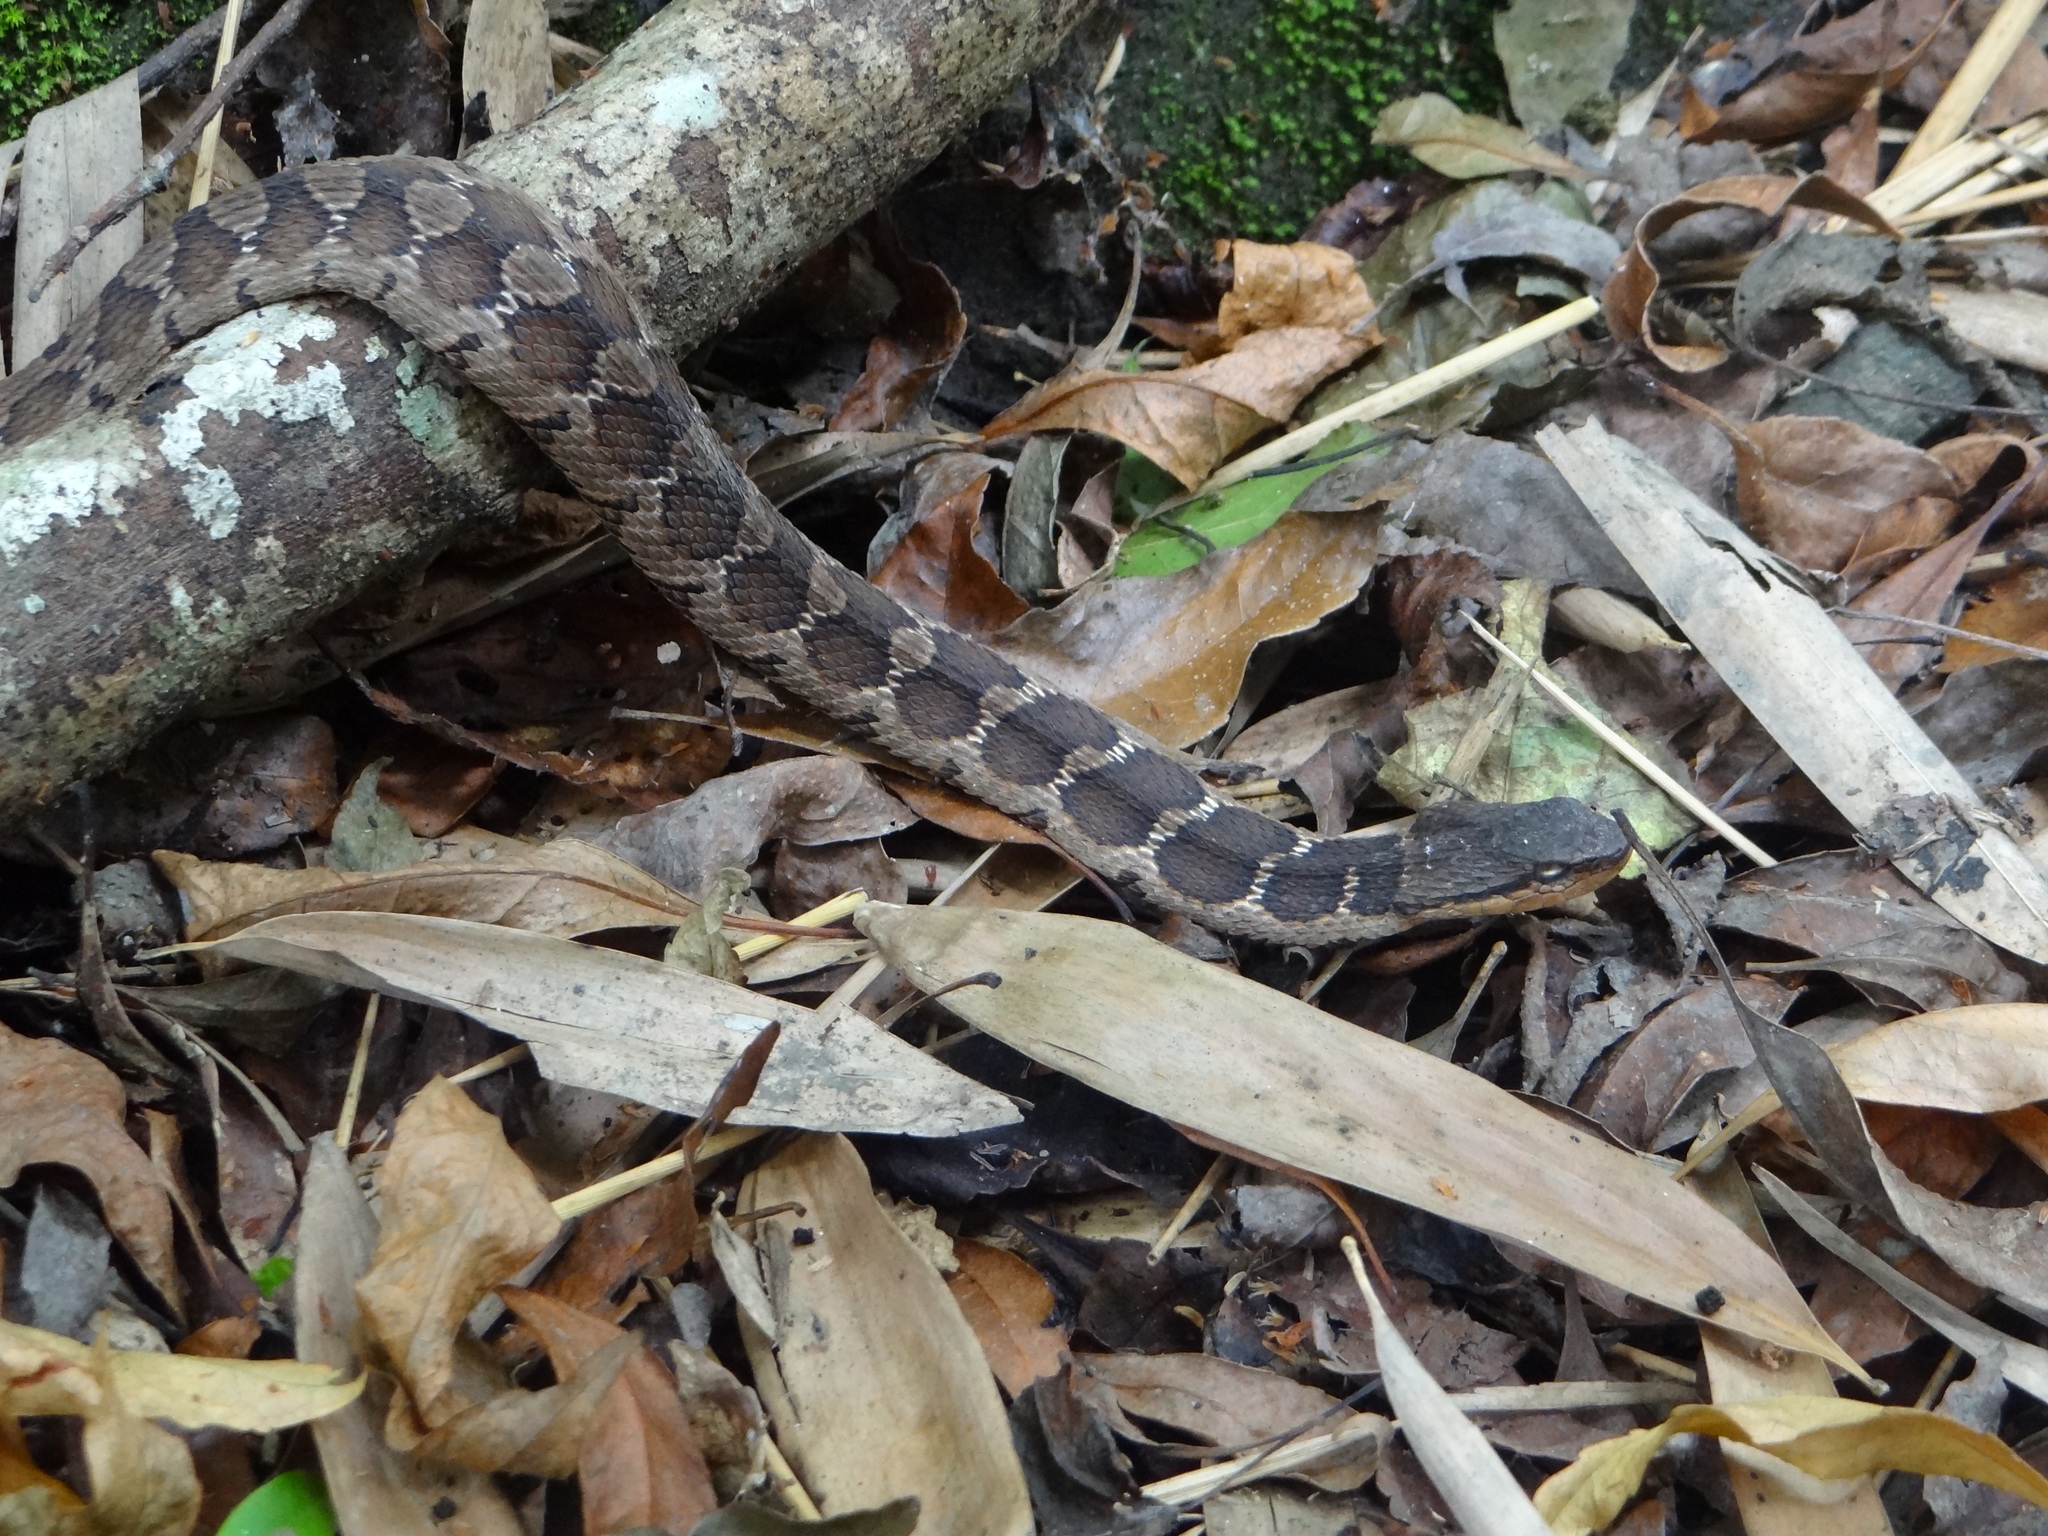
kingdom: Animalia
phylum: Chordata
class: Squamata
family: Colubridae
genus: Pseudagkistrodon
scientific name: Pseudagkistrodon rudis
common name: False habu
